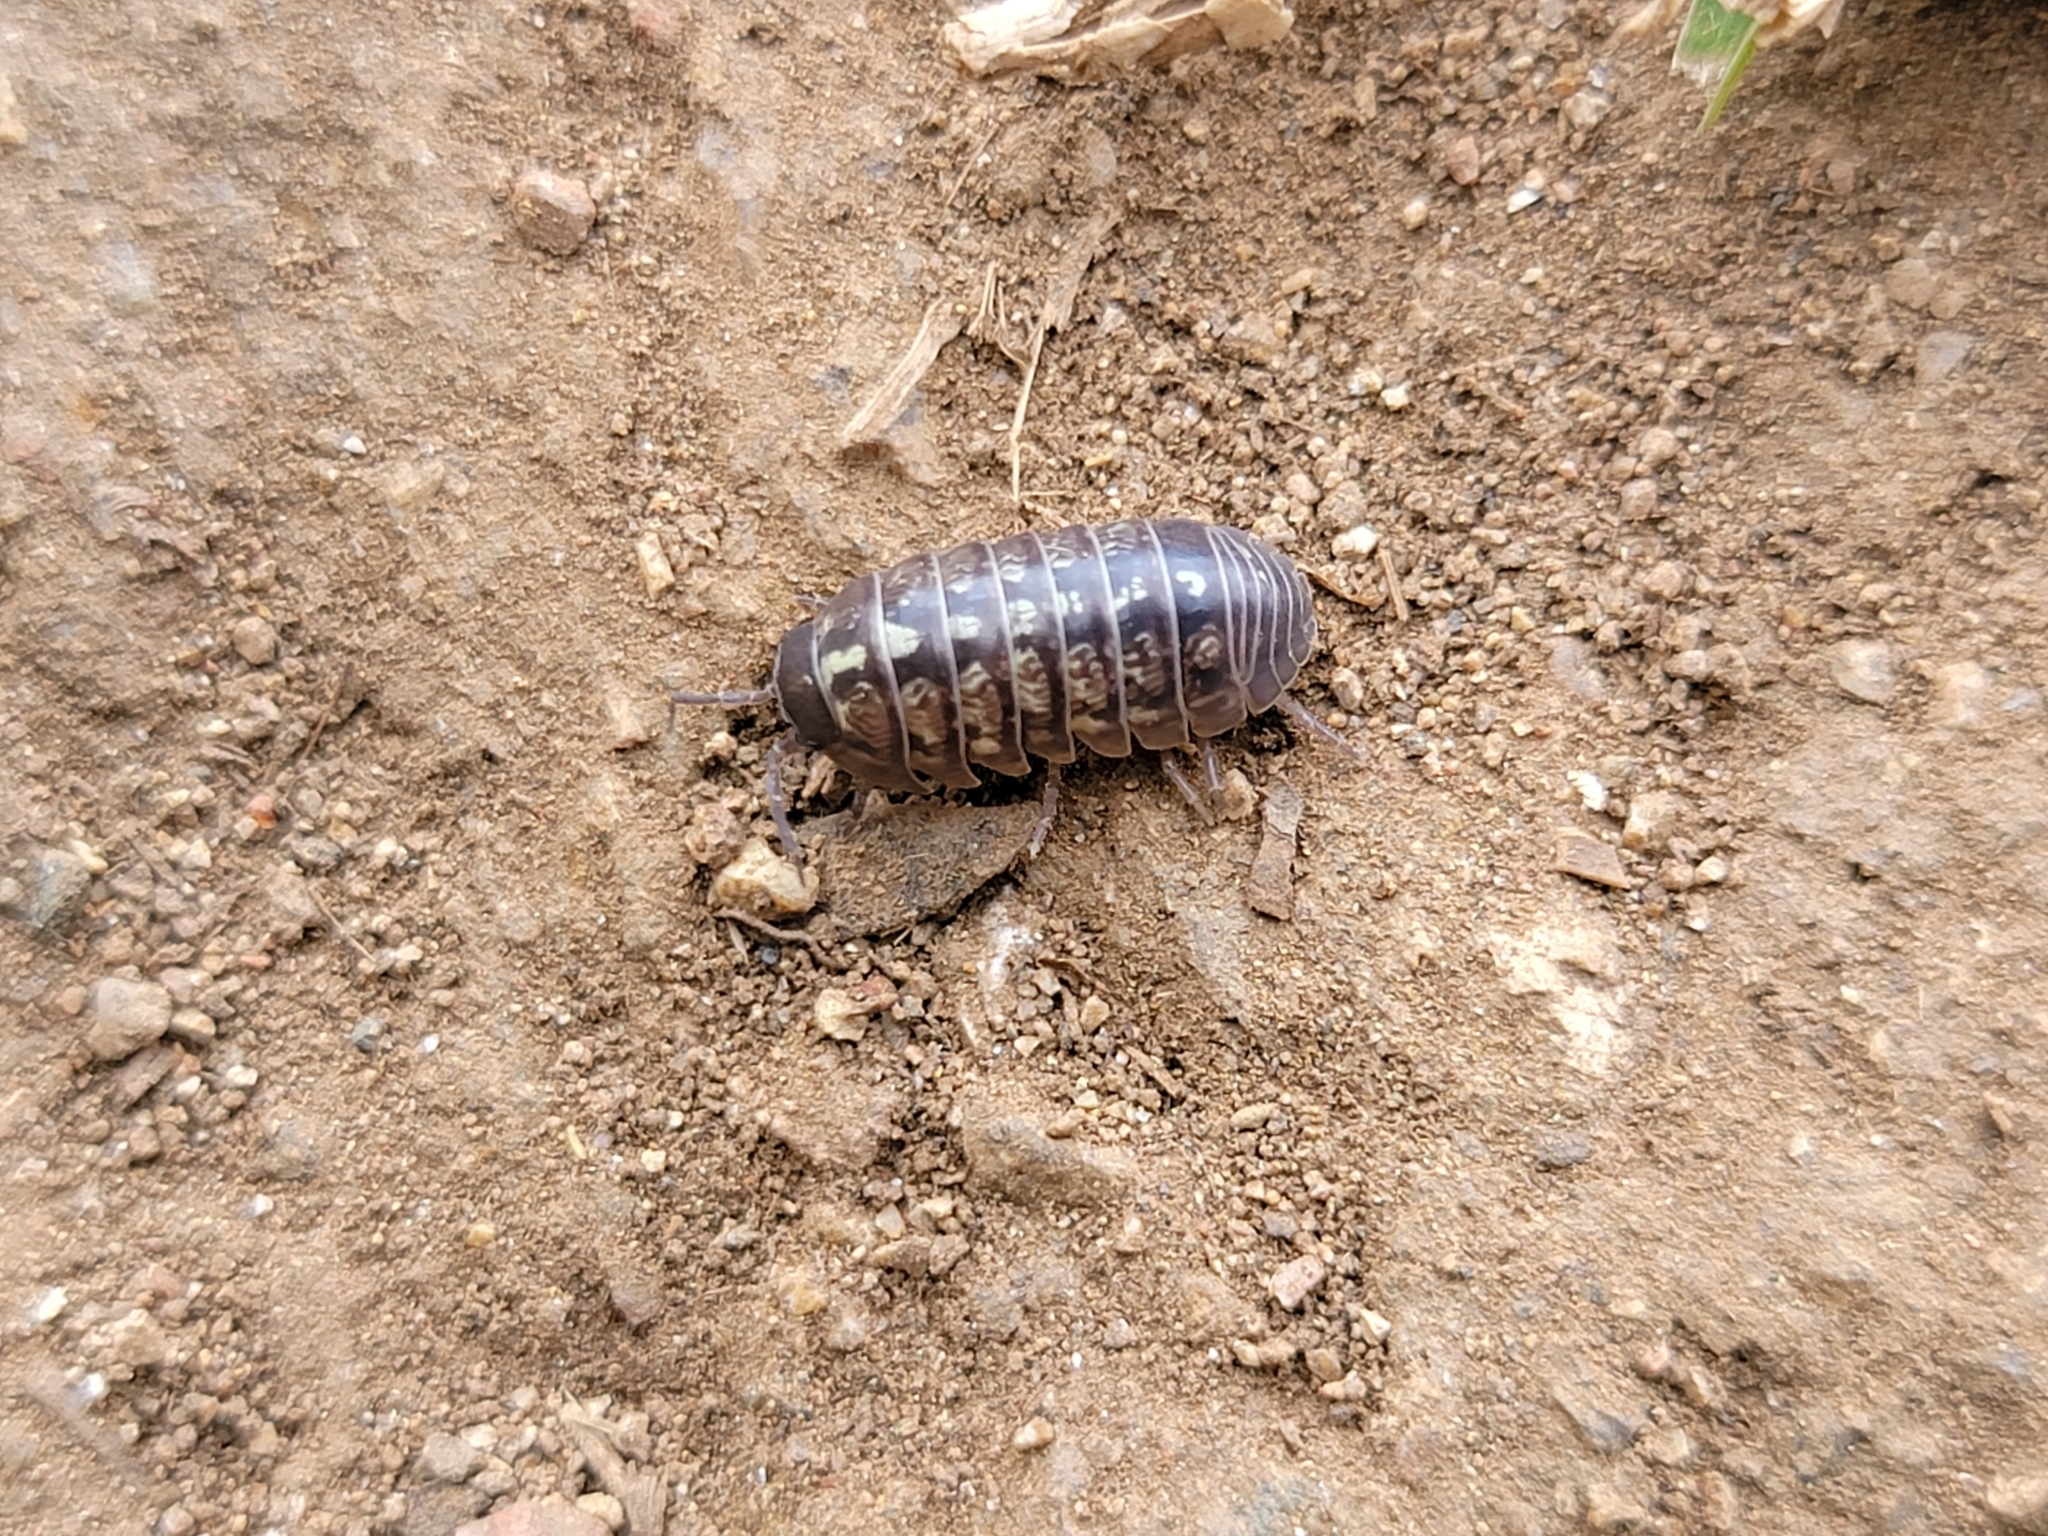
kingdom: Animalia
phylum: Arthropoda
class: Malacostraca
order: Isopoda
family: Armadillidiidae
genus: Armadillidium
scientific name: Armadillidium vulgare
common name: Common pill woodlouse
